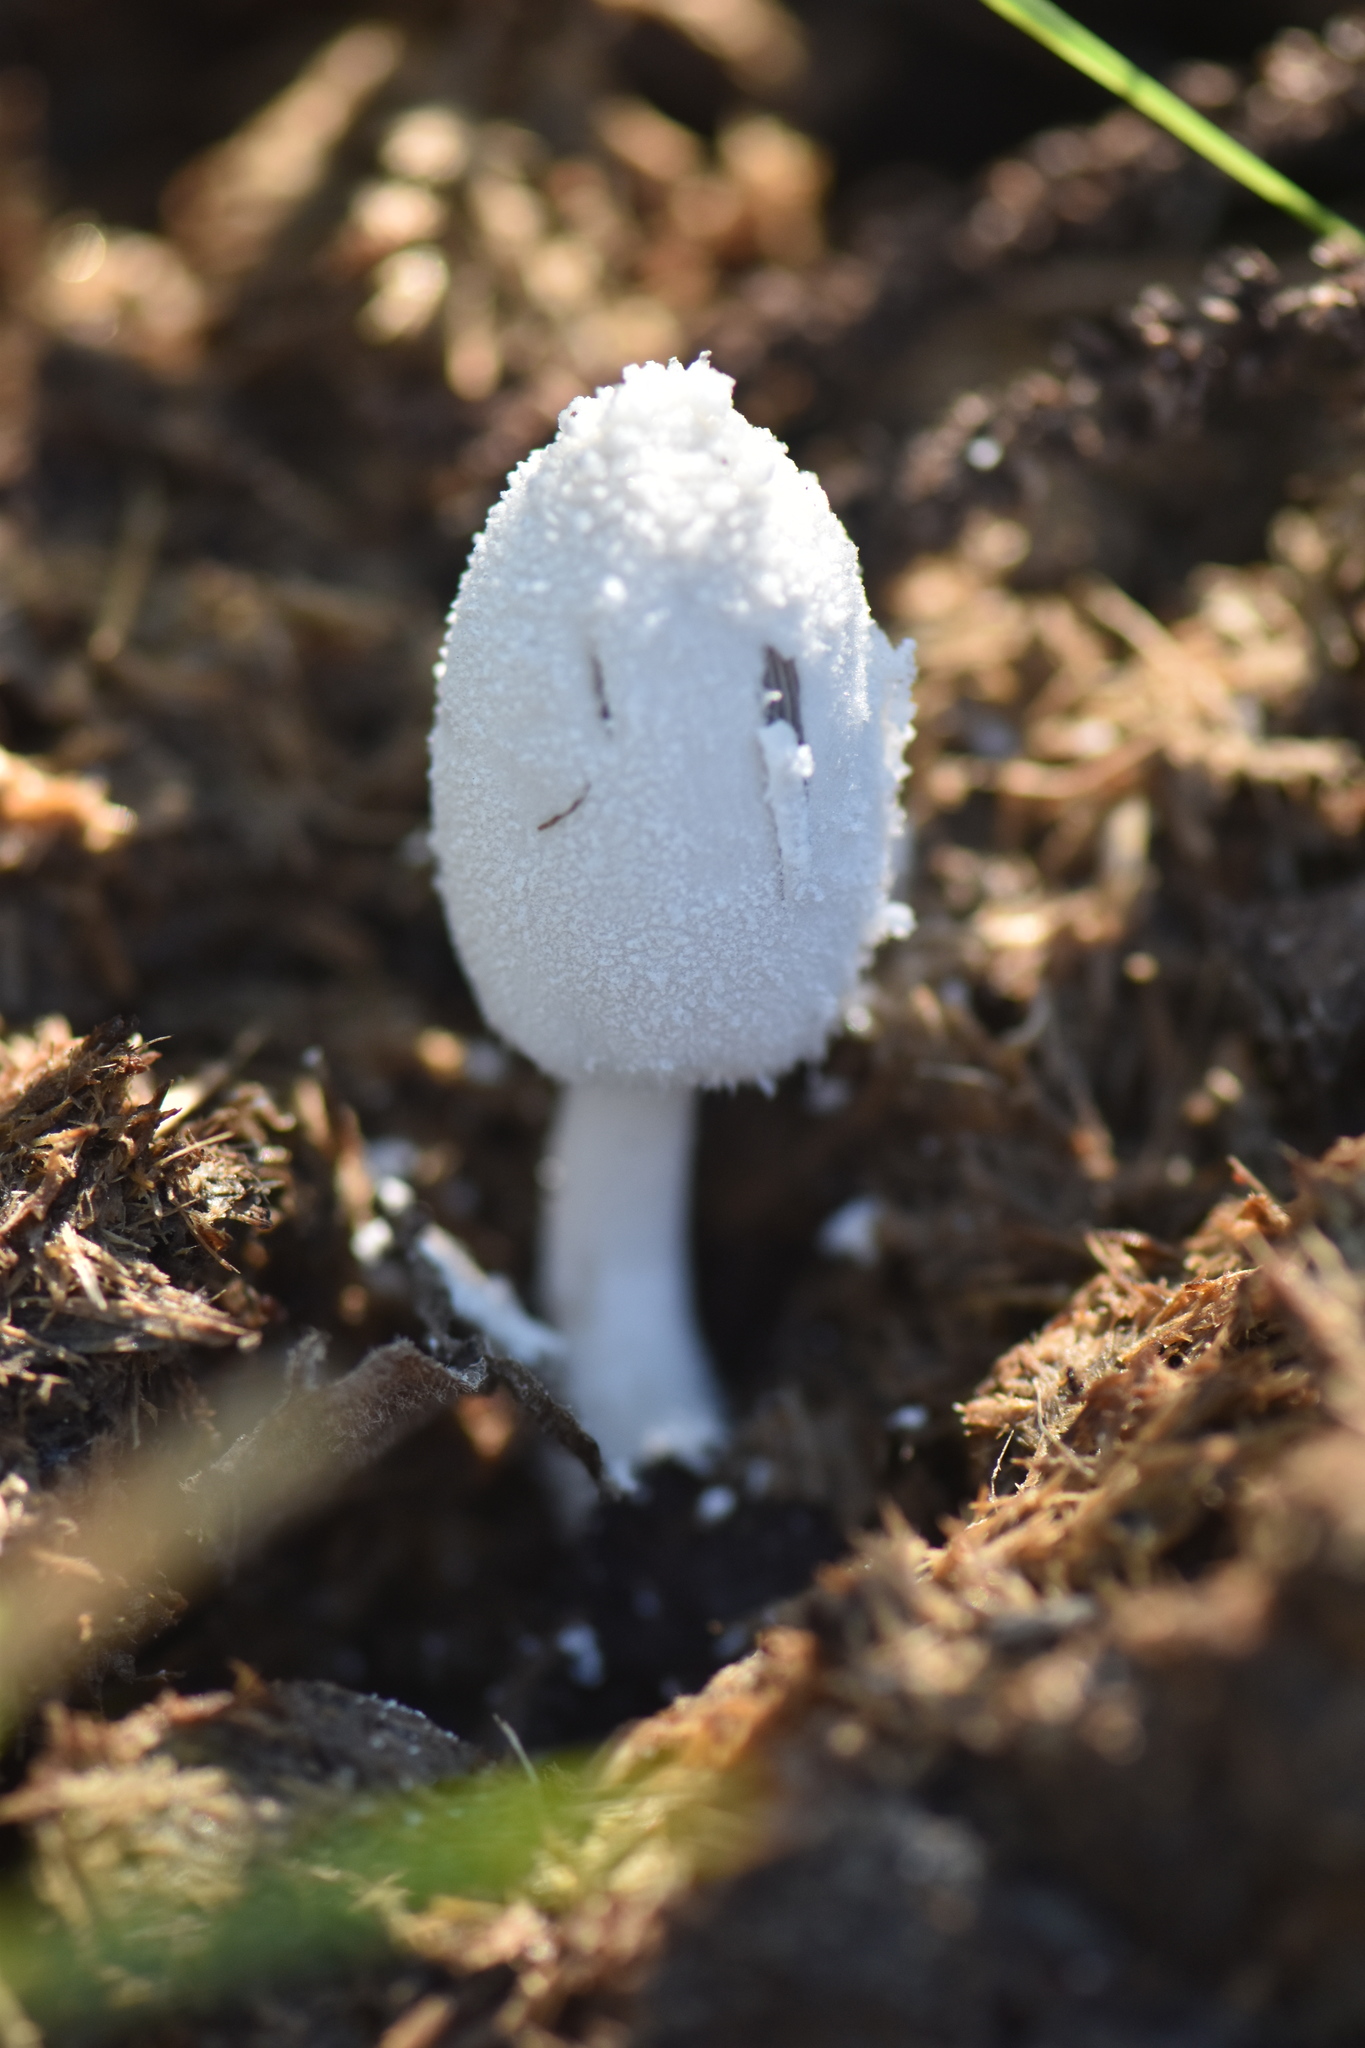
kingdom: Fungi
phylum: Basidiomycota
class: Agaricomycetes
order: Agaricales
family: Psathyrellaceae
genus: Coprinopsis
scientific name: Coprinopsis nivea
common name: Snowy inkcap
